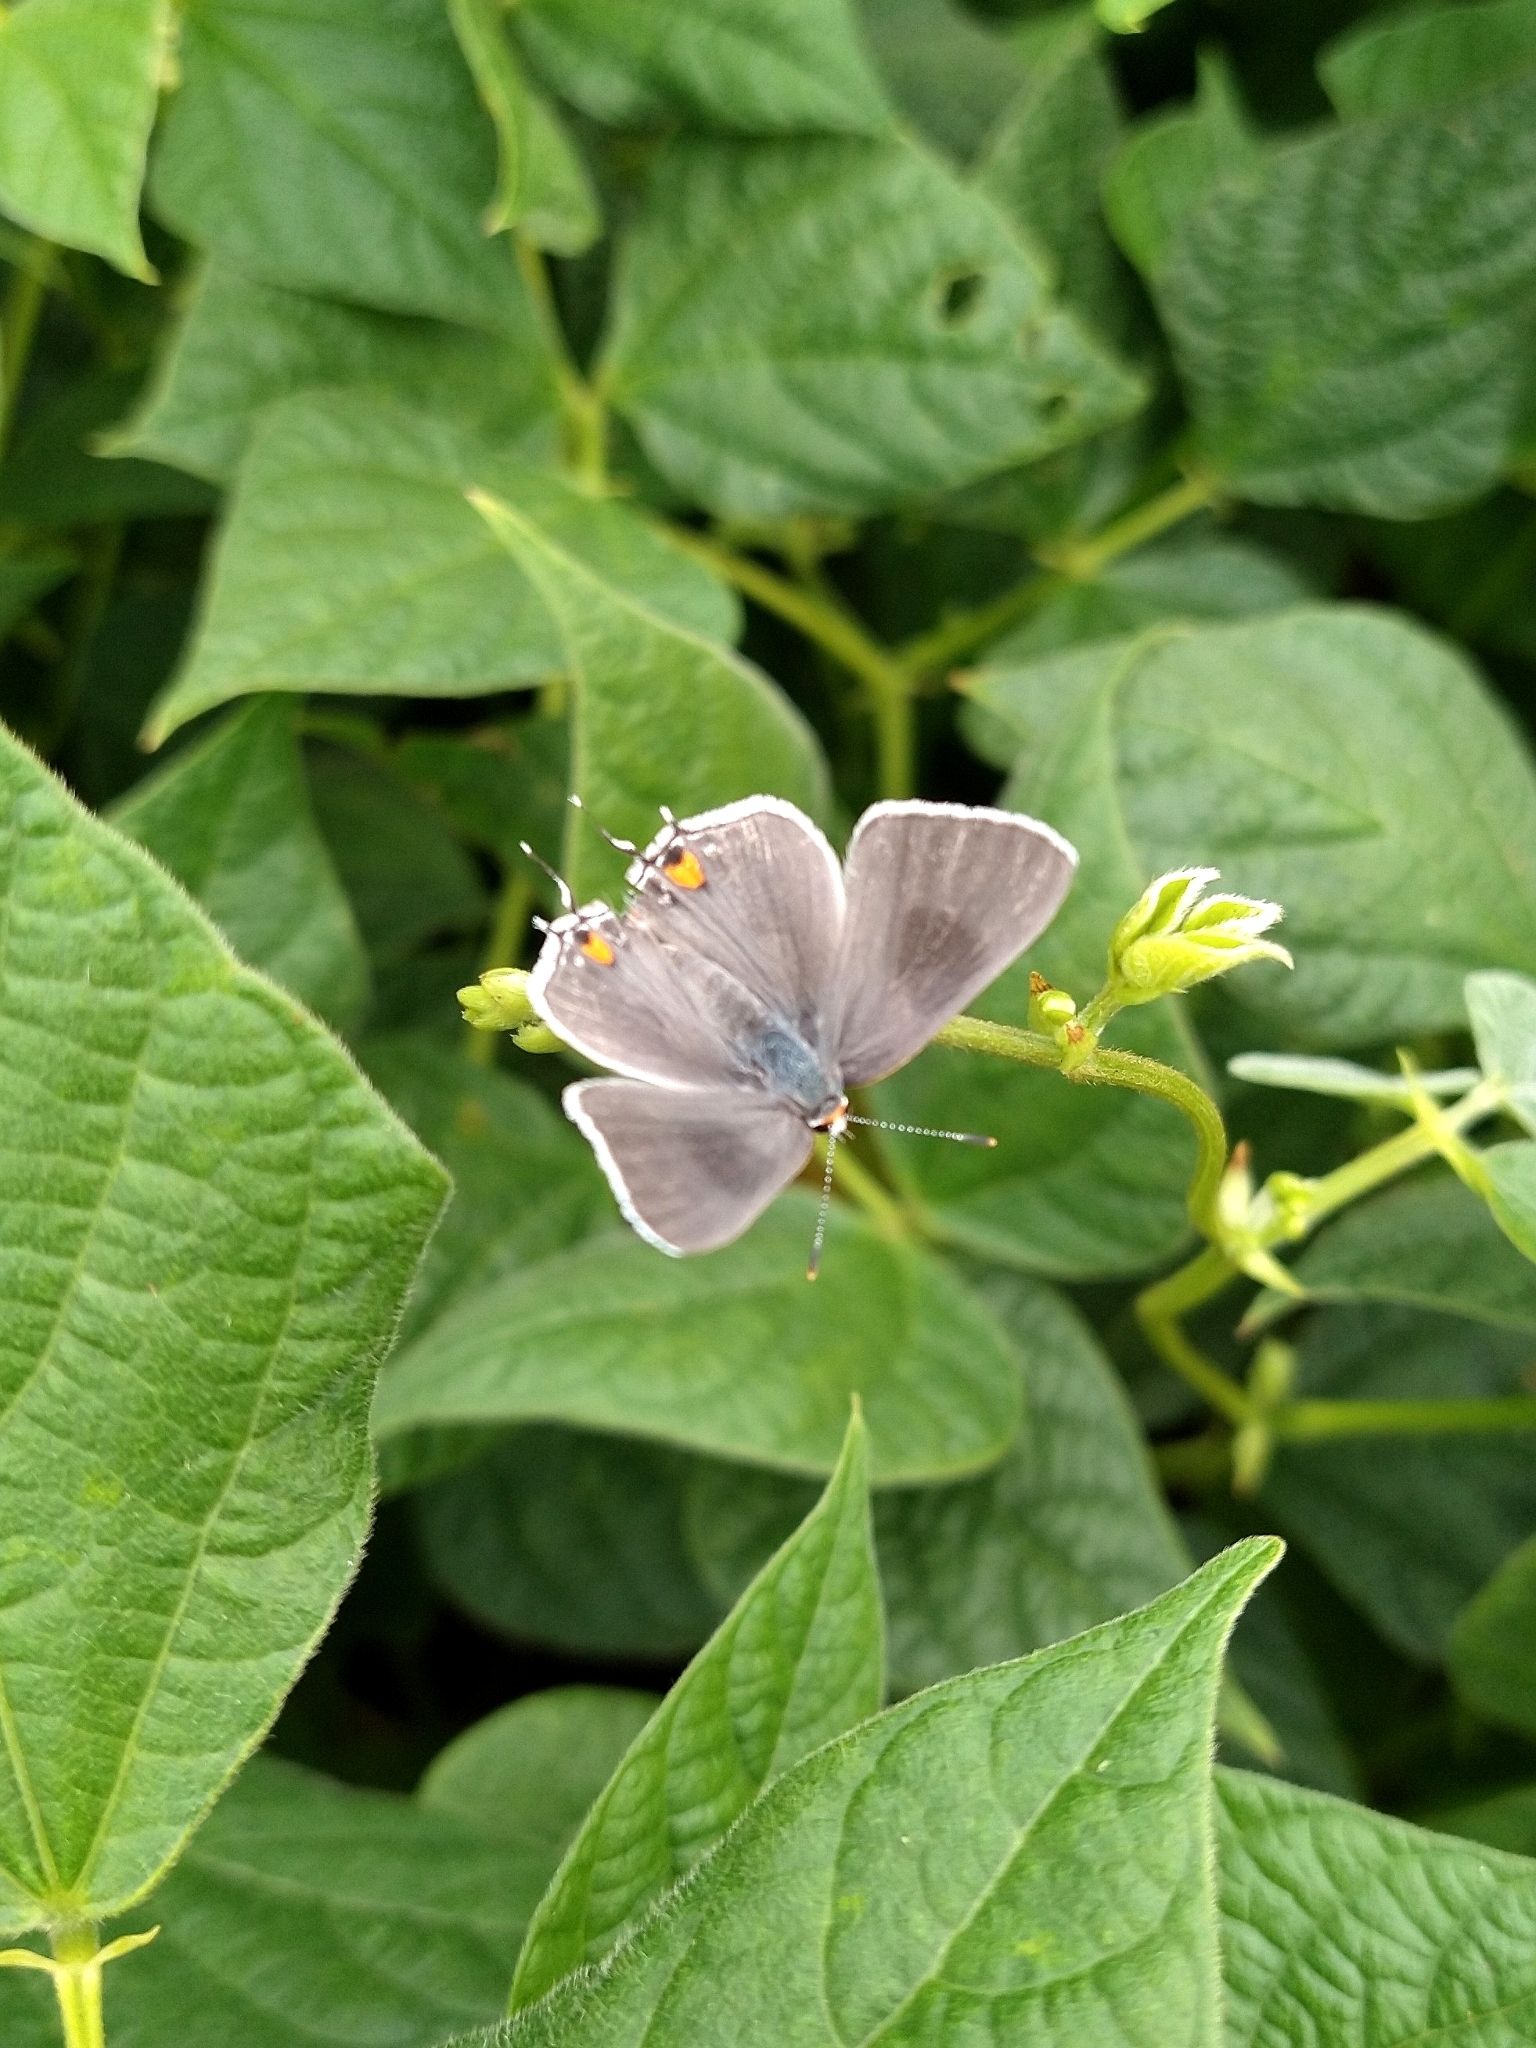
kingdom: Animalia
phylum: Arthropoda
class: Insecta
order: Lepidoptera
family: Lycaenidae
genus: Strymon
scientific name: Strymon melinus
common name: Gray hairstreak
